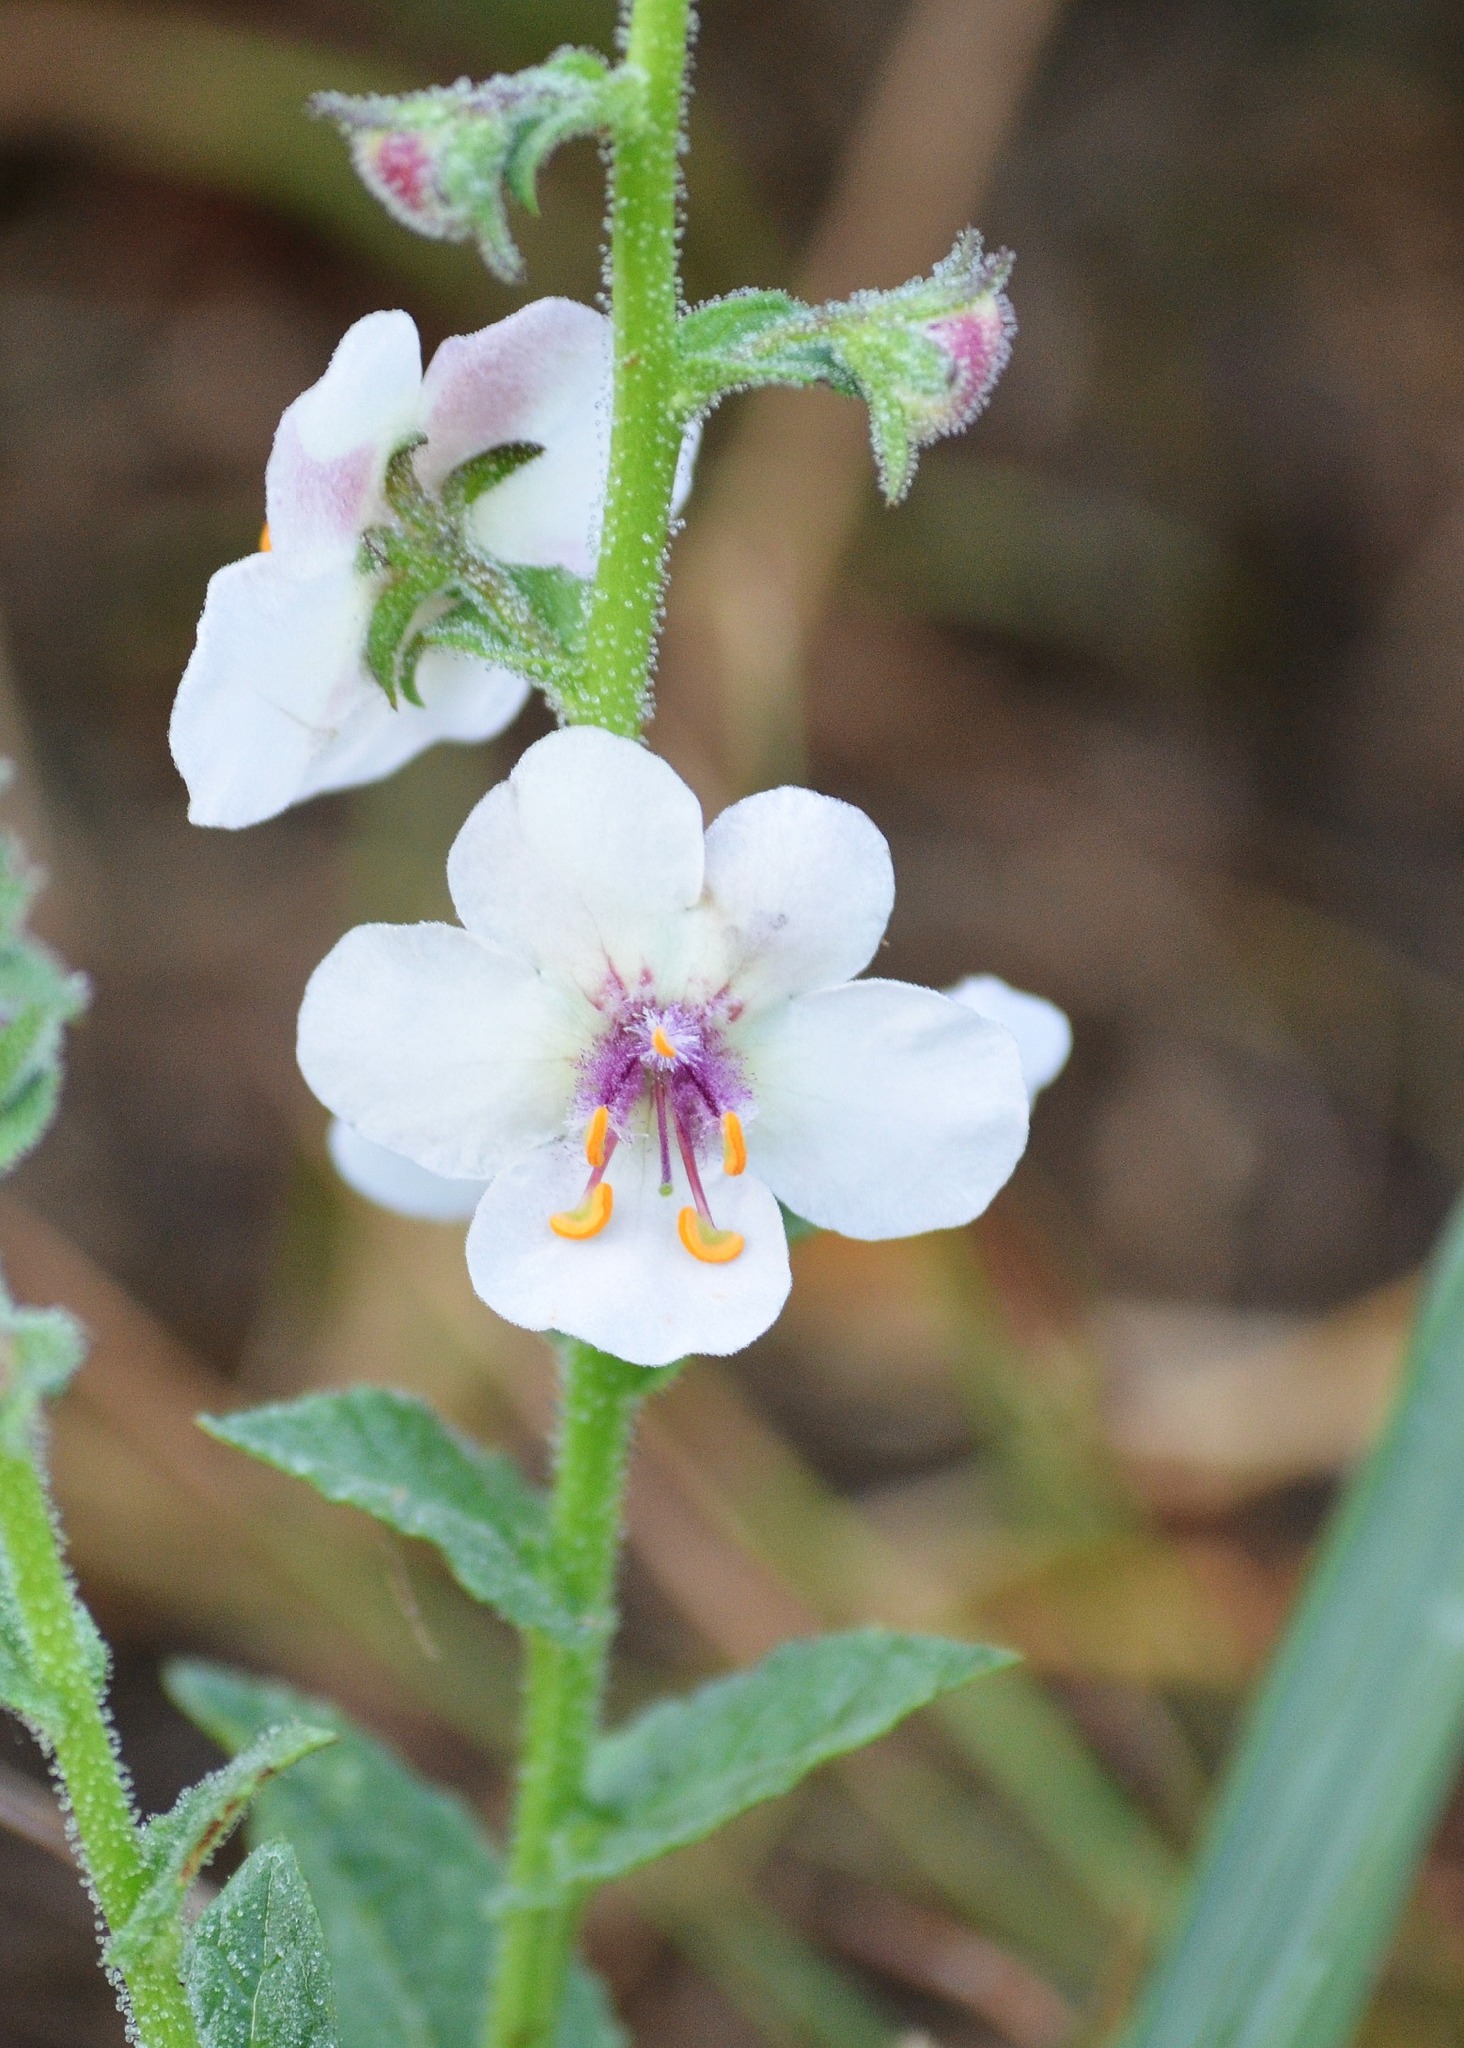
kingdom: Plantae
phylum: Tracheophyta
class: Magnoliopsida
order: Lamiales
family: Scrophulariaceae
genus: Verbascum
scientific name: Verbascum blattaria
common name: Moth mullein
